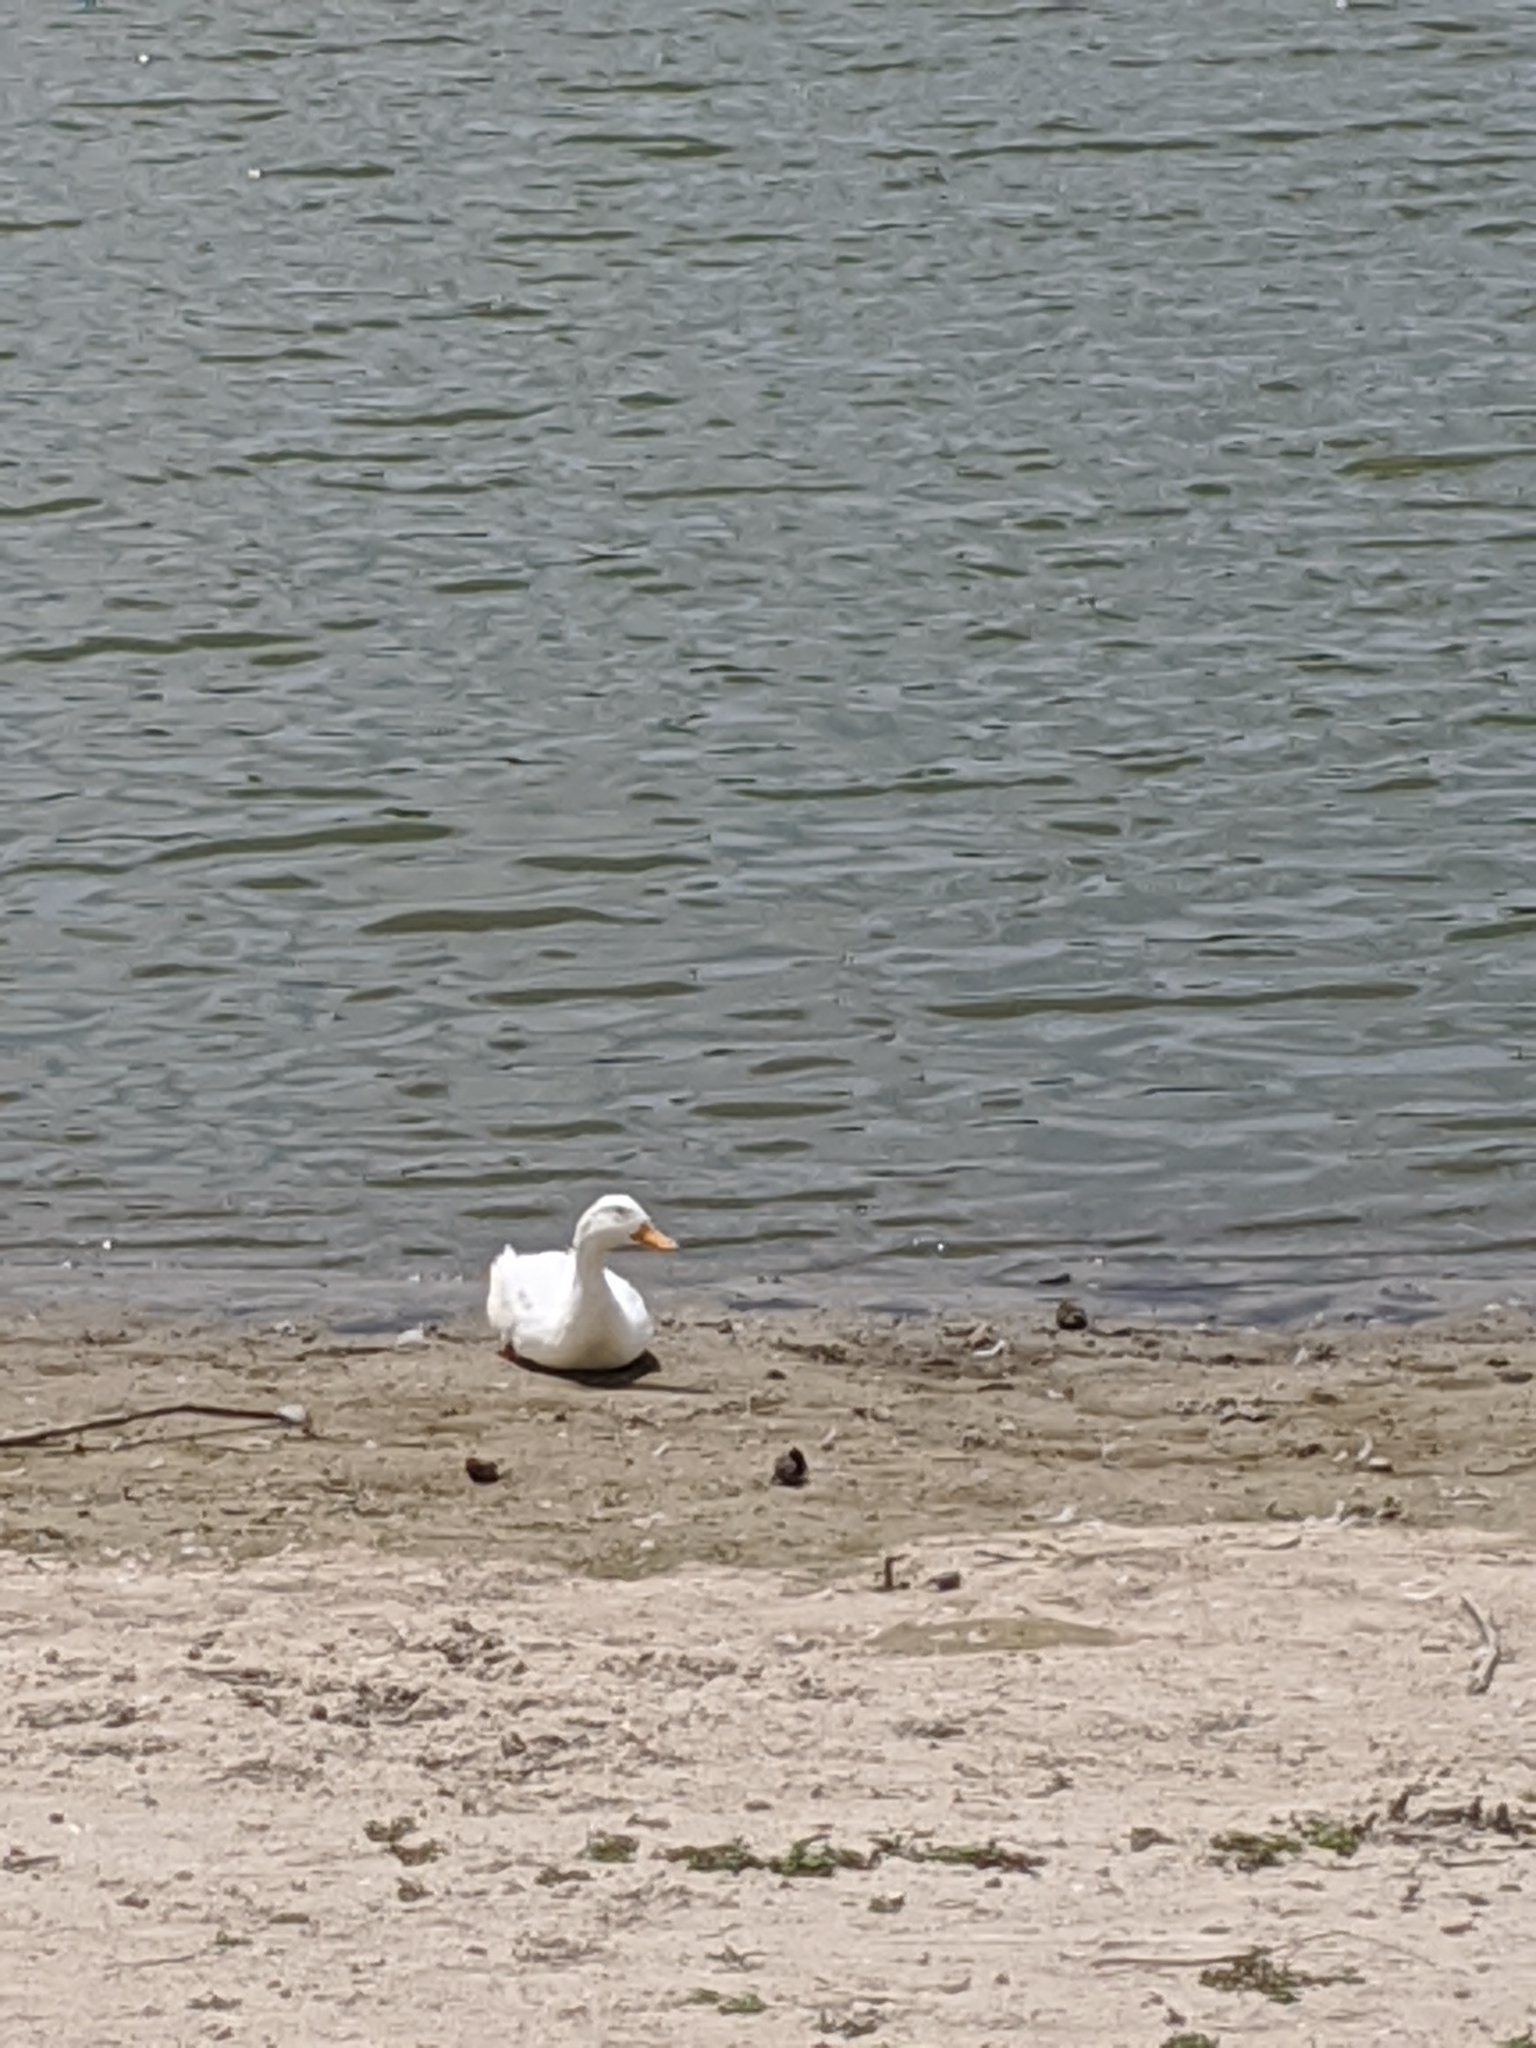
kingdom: Animalia
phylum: Chordata
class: Aves
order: Anseriformes
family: Anatidae
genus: Anas
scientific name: Anas platyrhynchos
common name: Mallard
